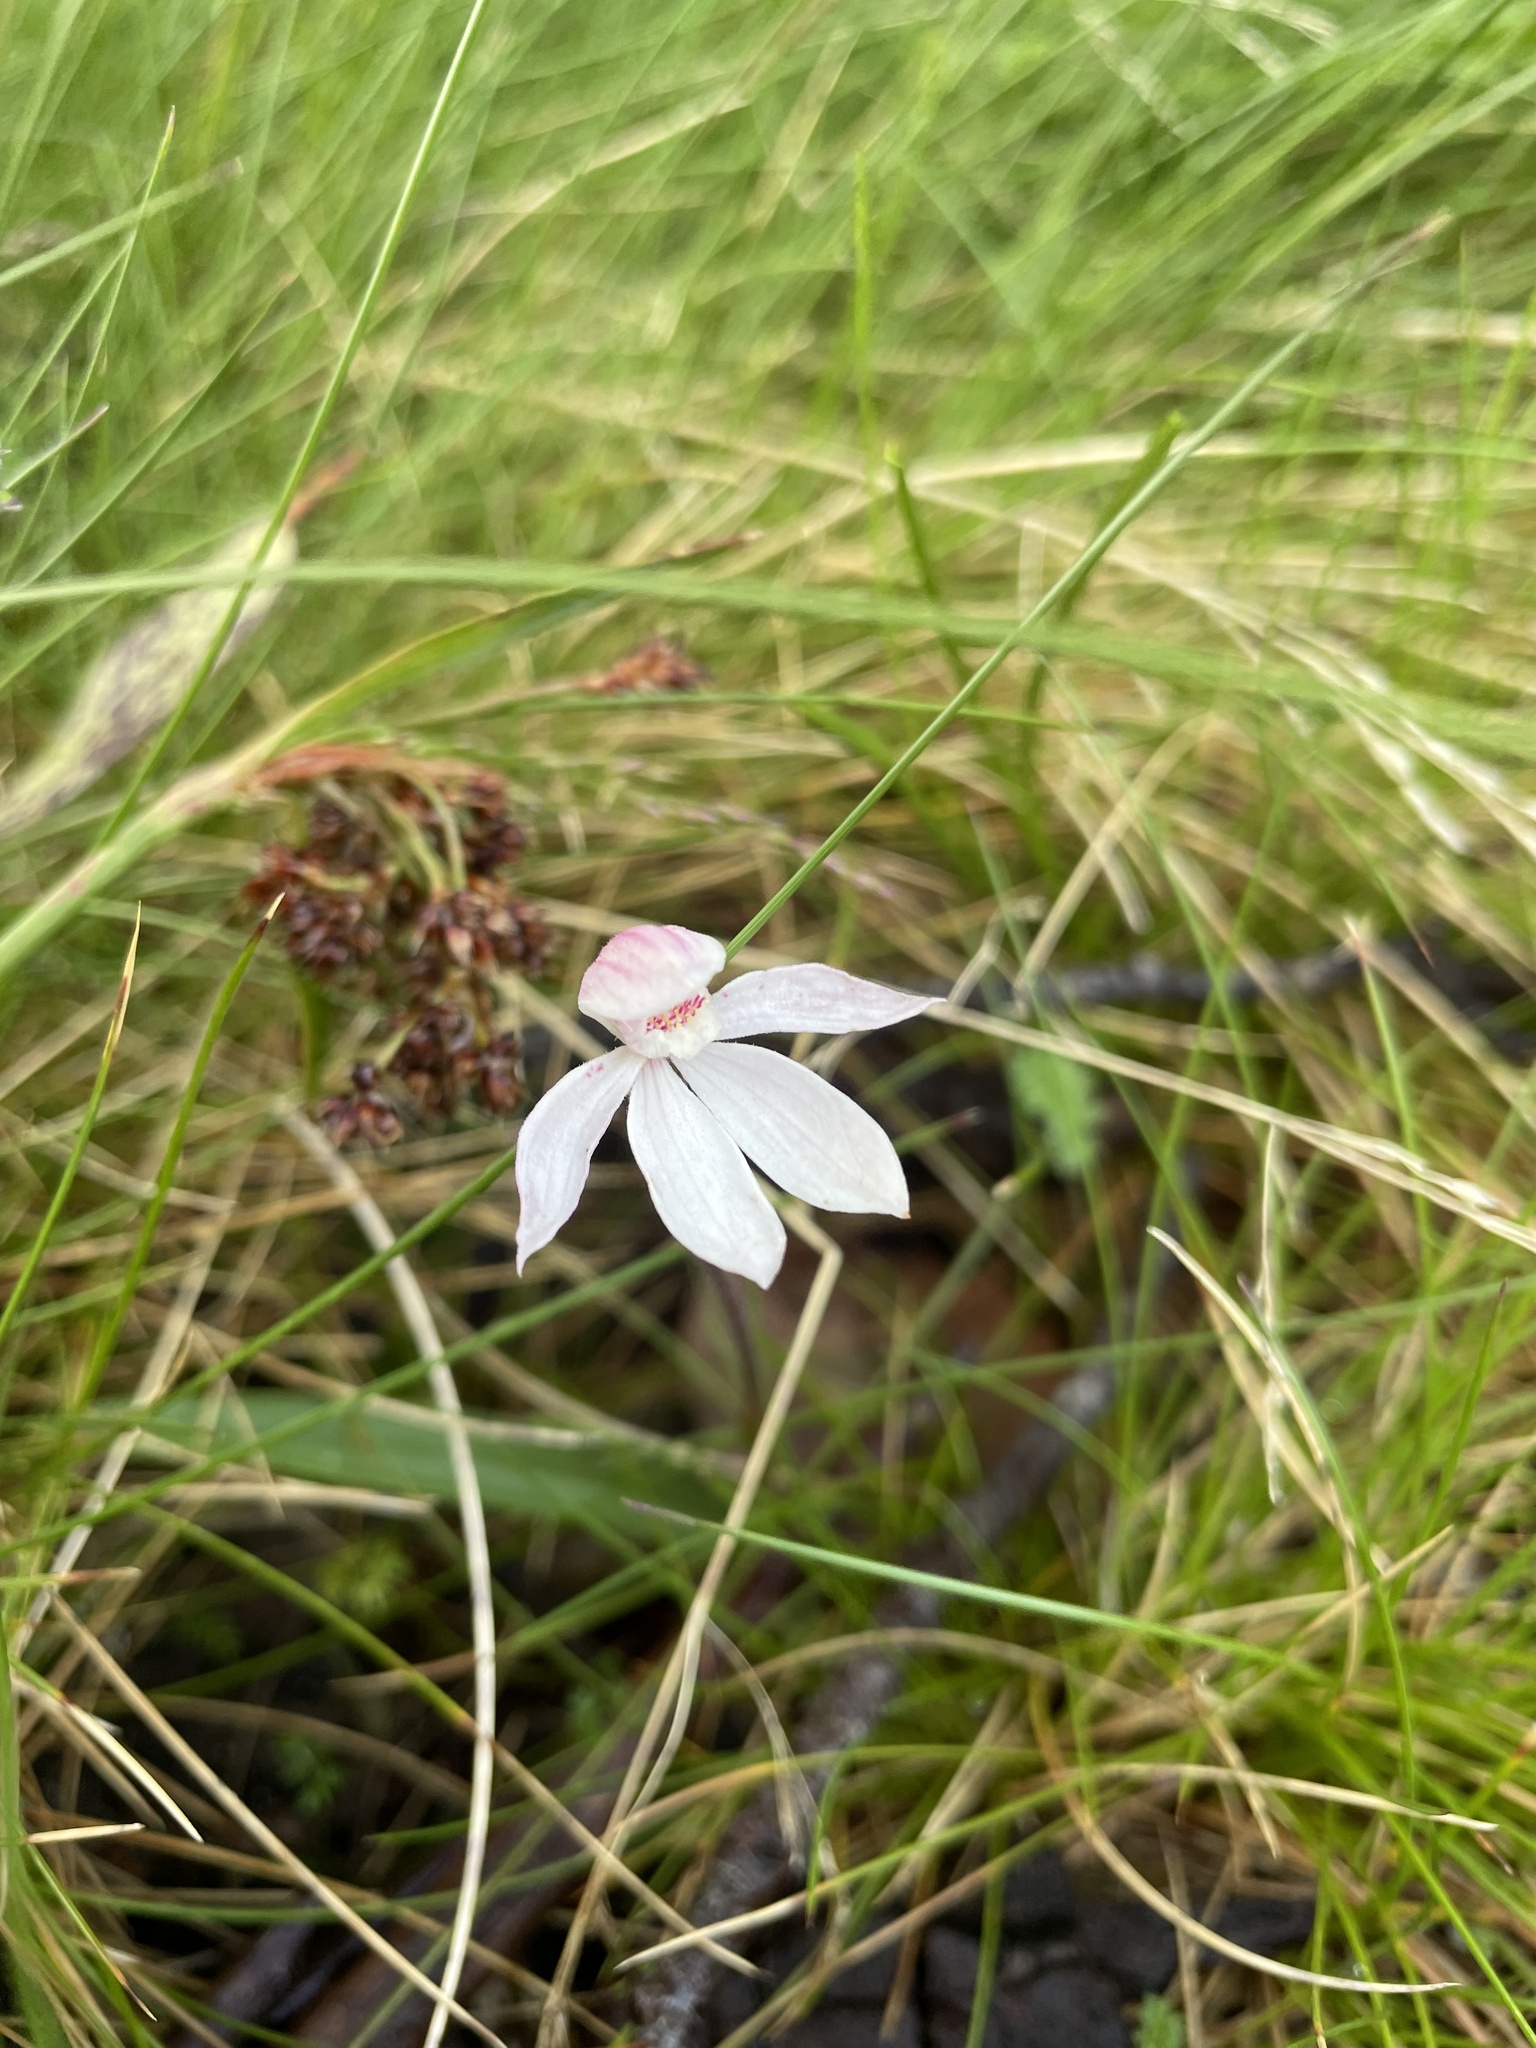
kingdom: Plantae
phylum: Tracheophyta
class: Liliopsida
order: Asparagales
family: Orchidaceae
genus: Caladenia
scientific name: Caladenia alpina
